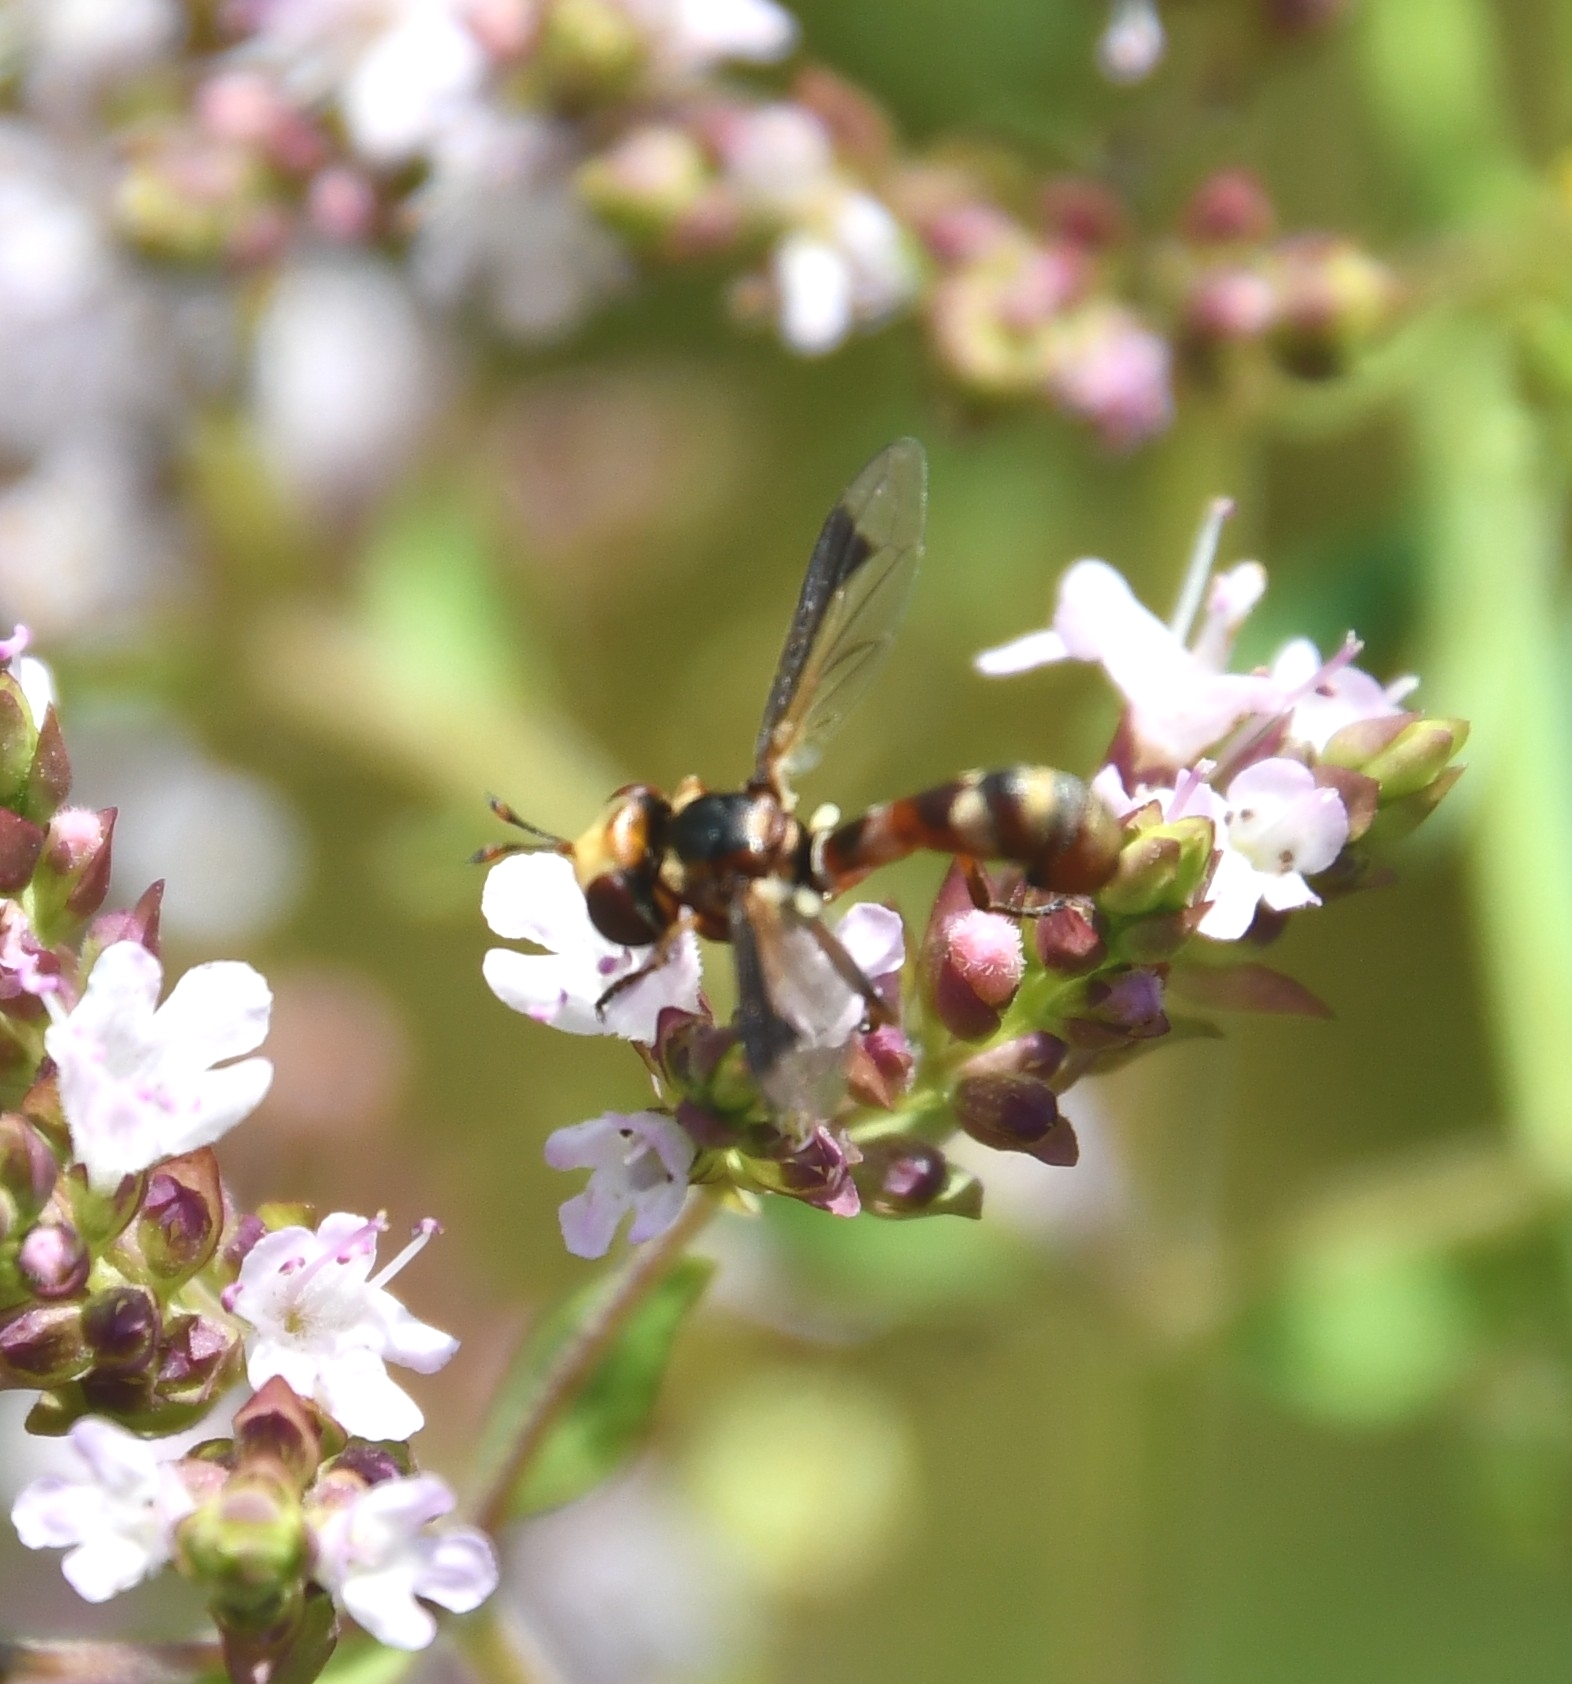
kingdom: Animalia
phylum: Arthropoda
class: Insecta
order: Diptera
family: Conopidae
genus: Physocephala
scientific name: Physocephala vittata
